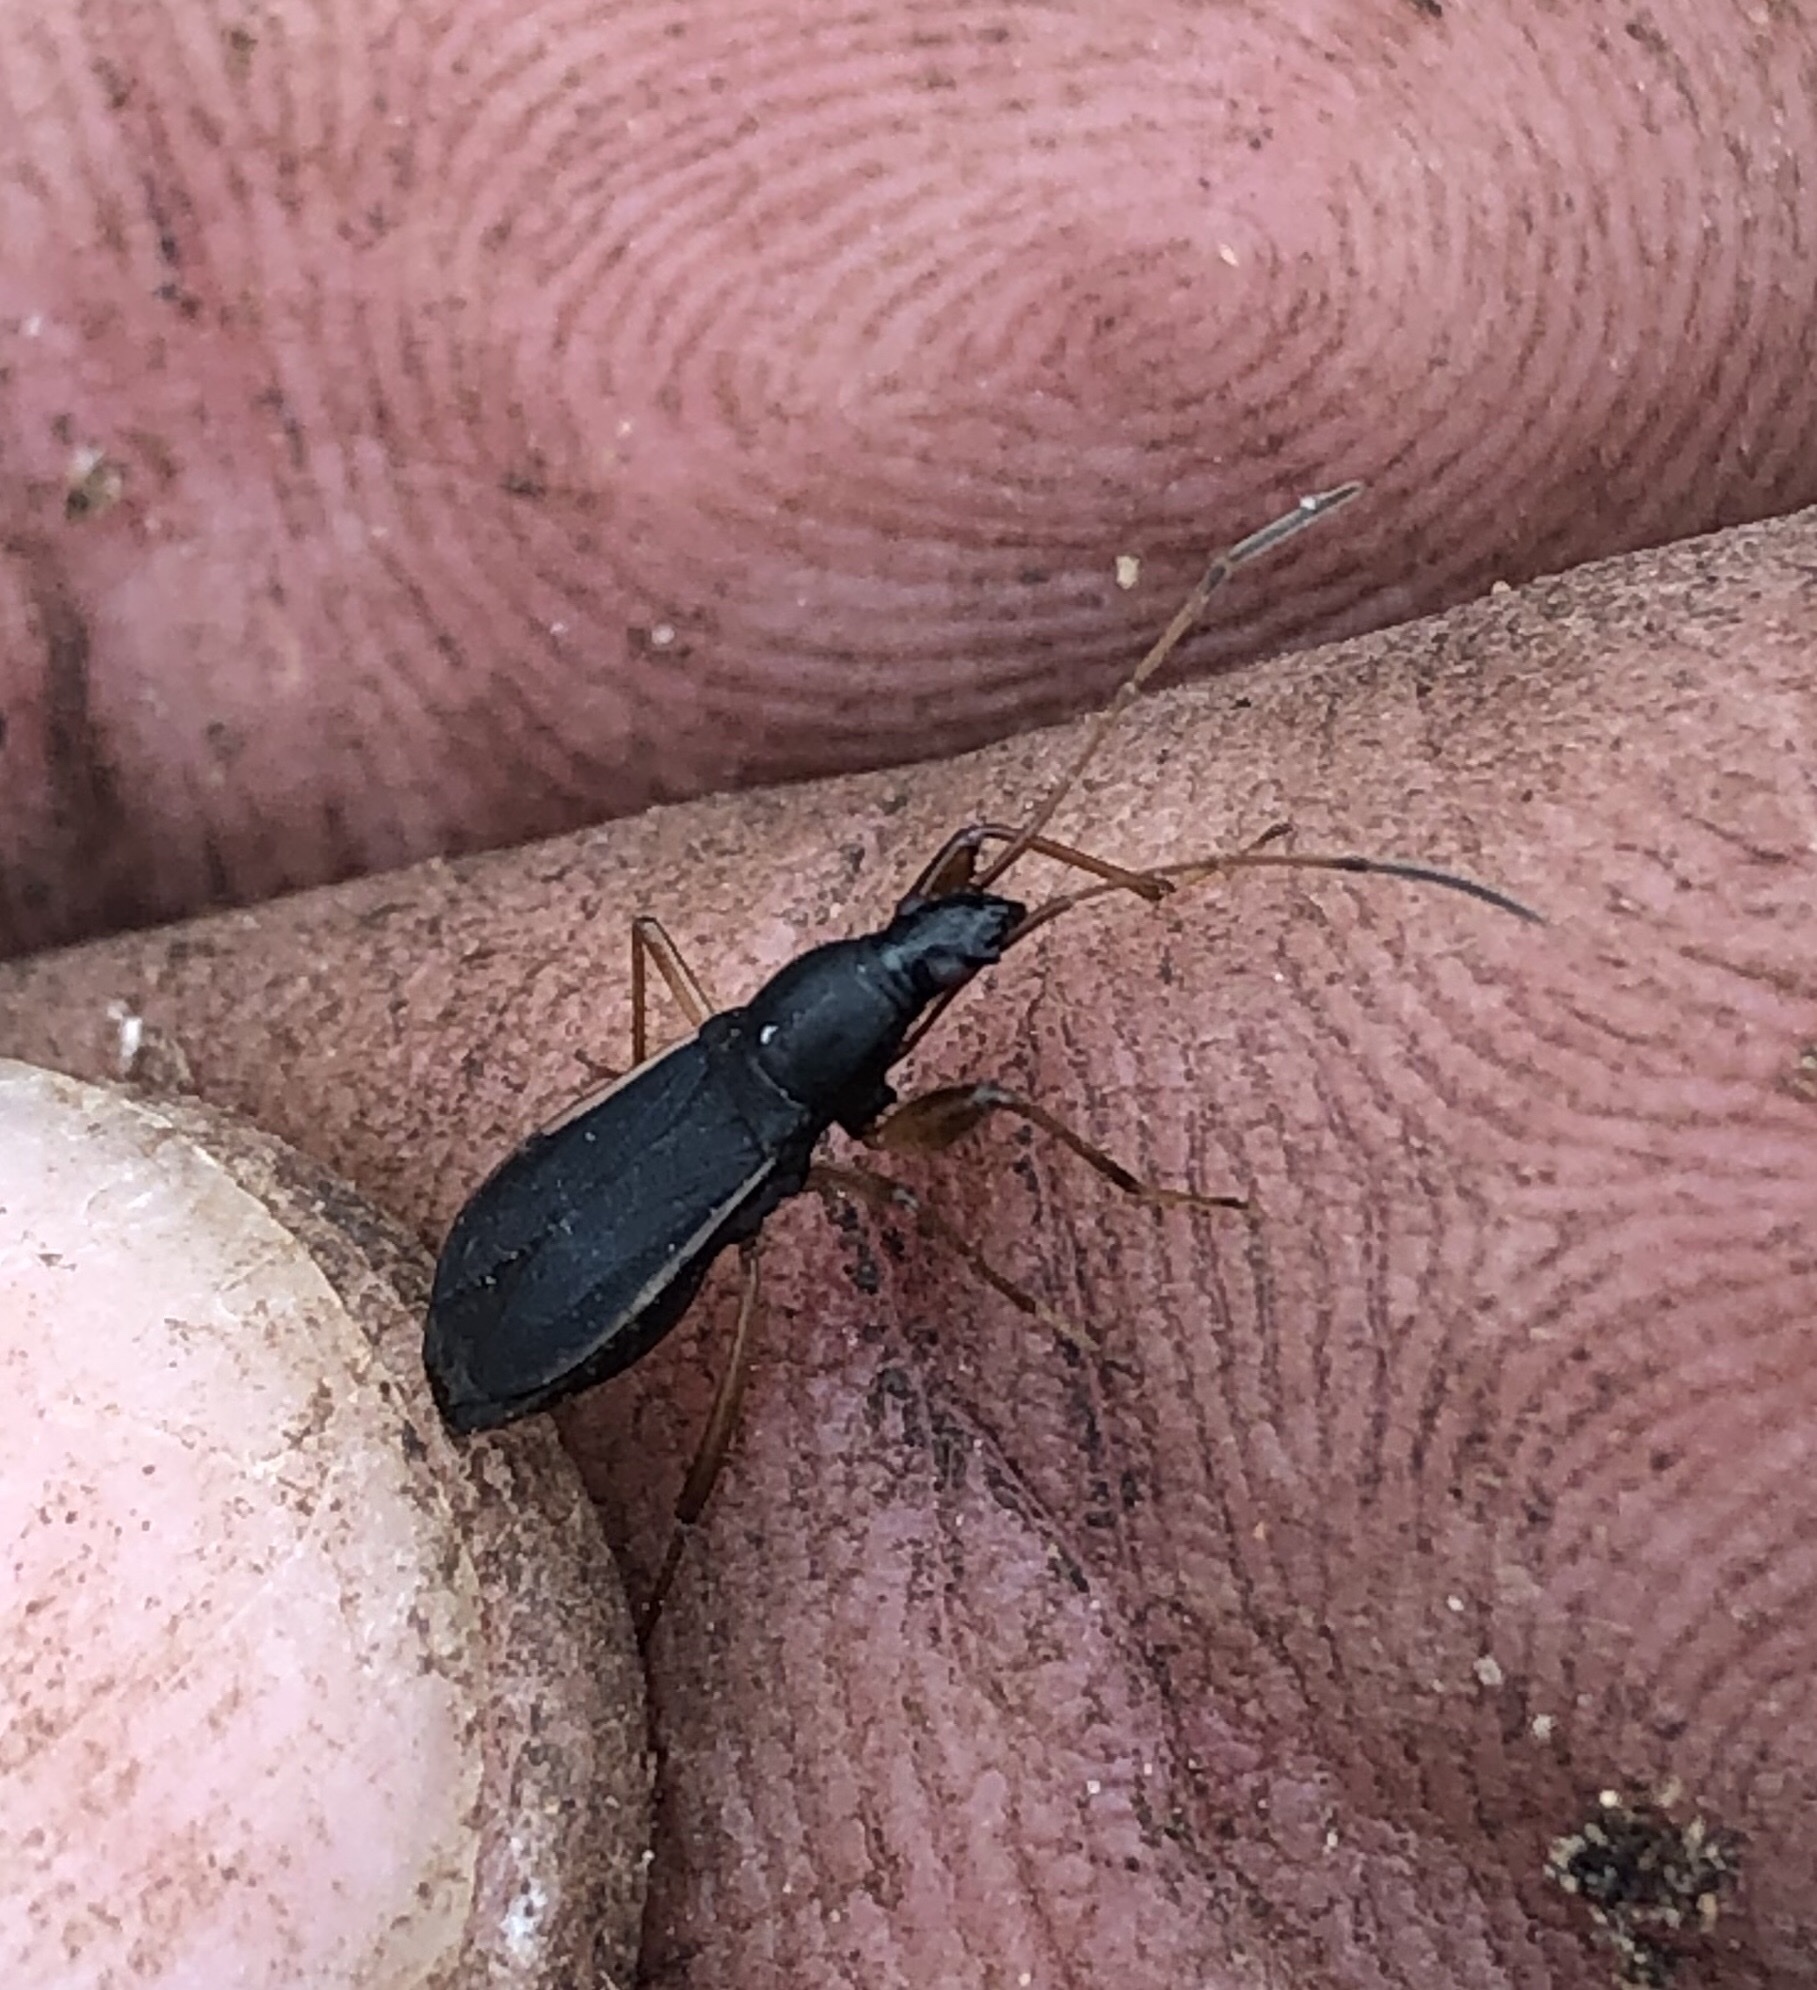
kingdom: Animalia
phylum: Arthropoda
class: Insecta
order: Hemiptera
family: Rhyparochromidae
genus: Cnemodus
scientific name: Cnemodus mavortius
